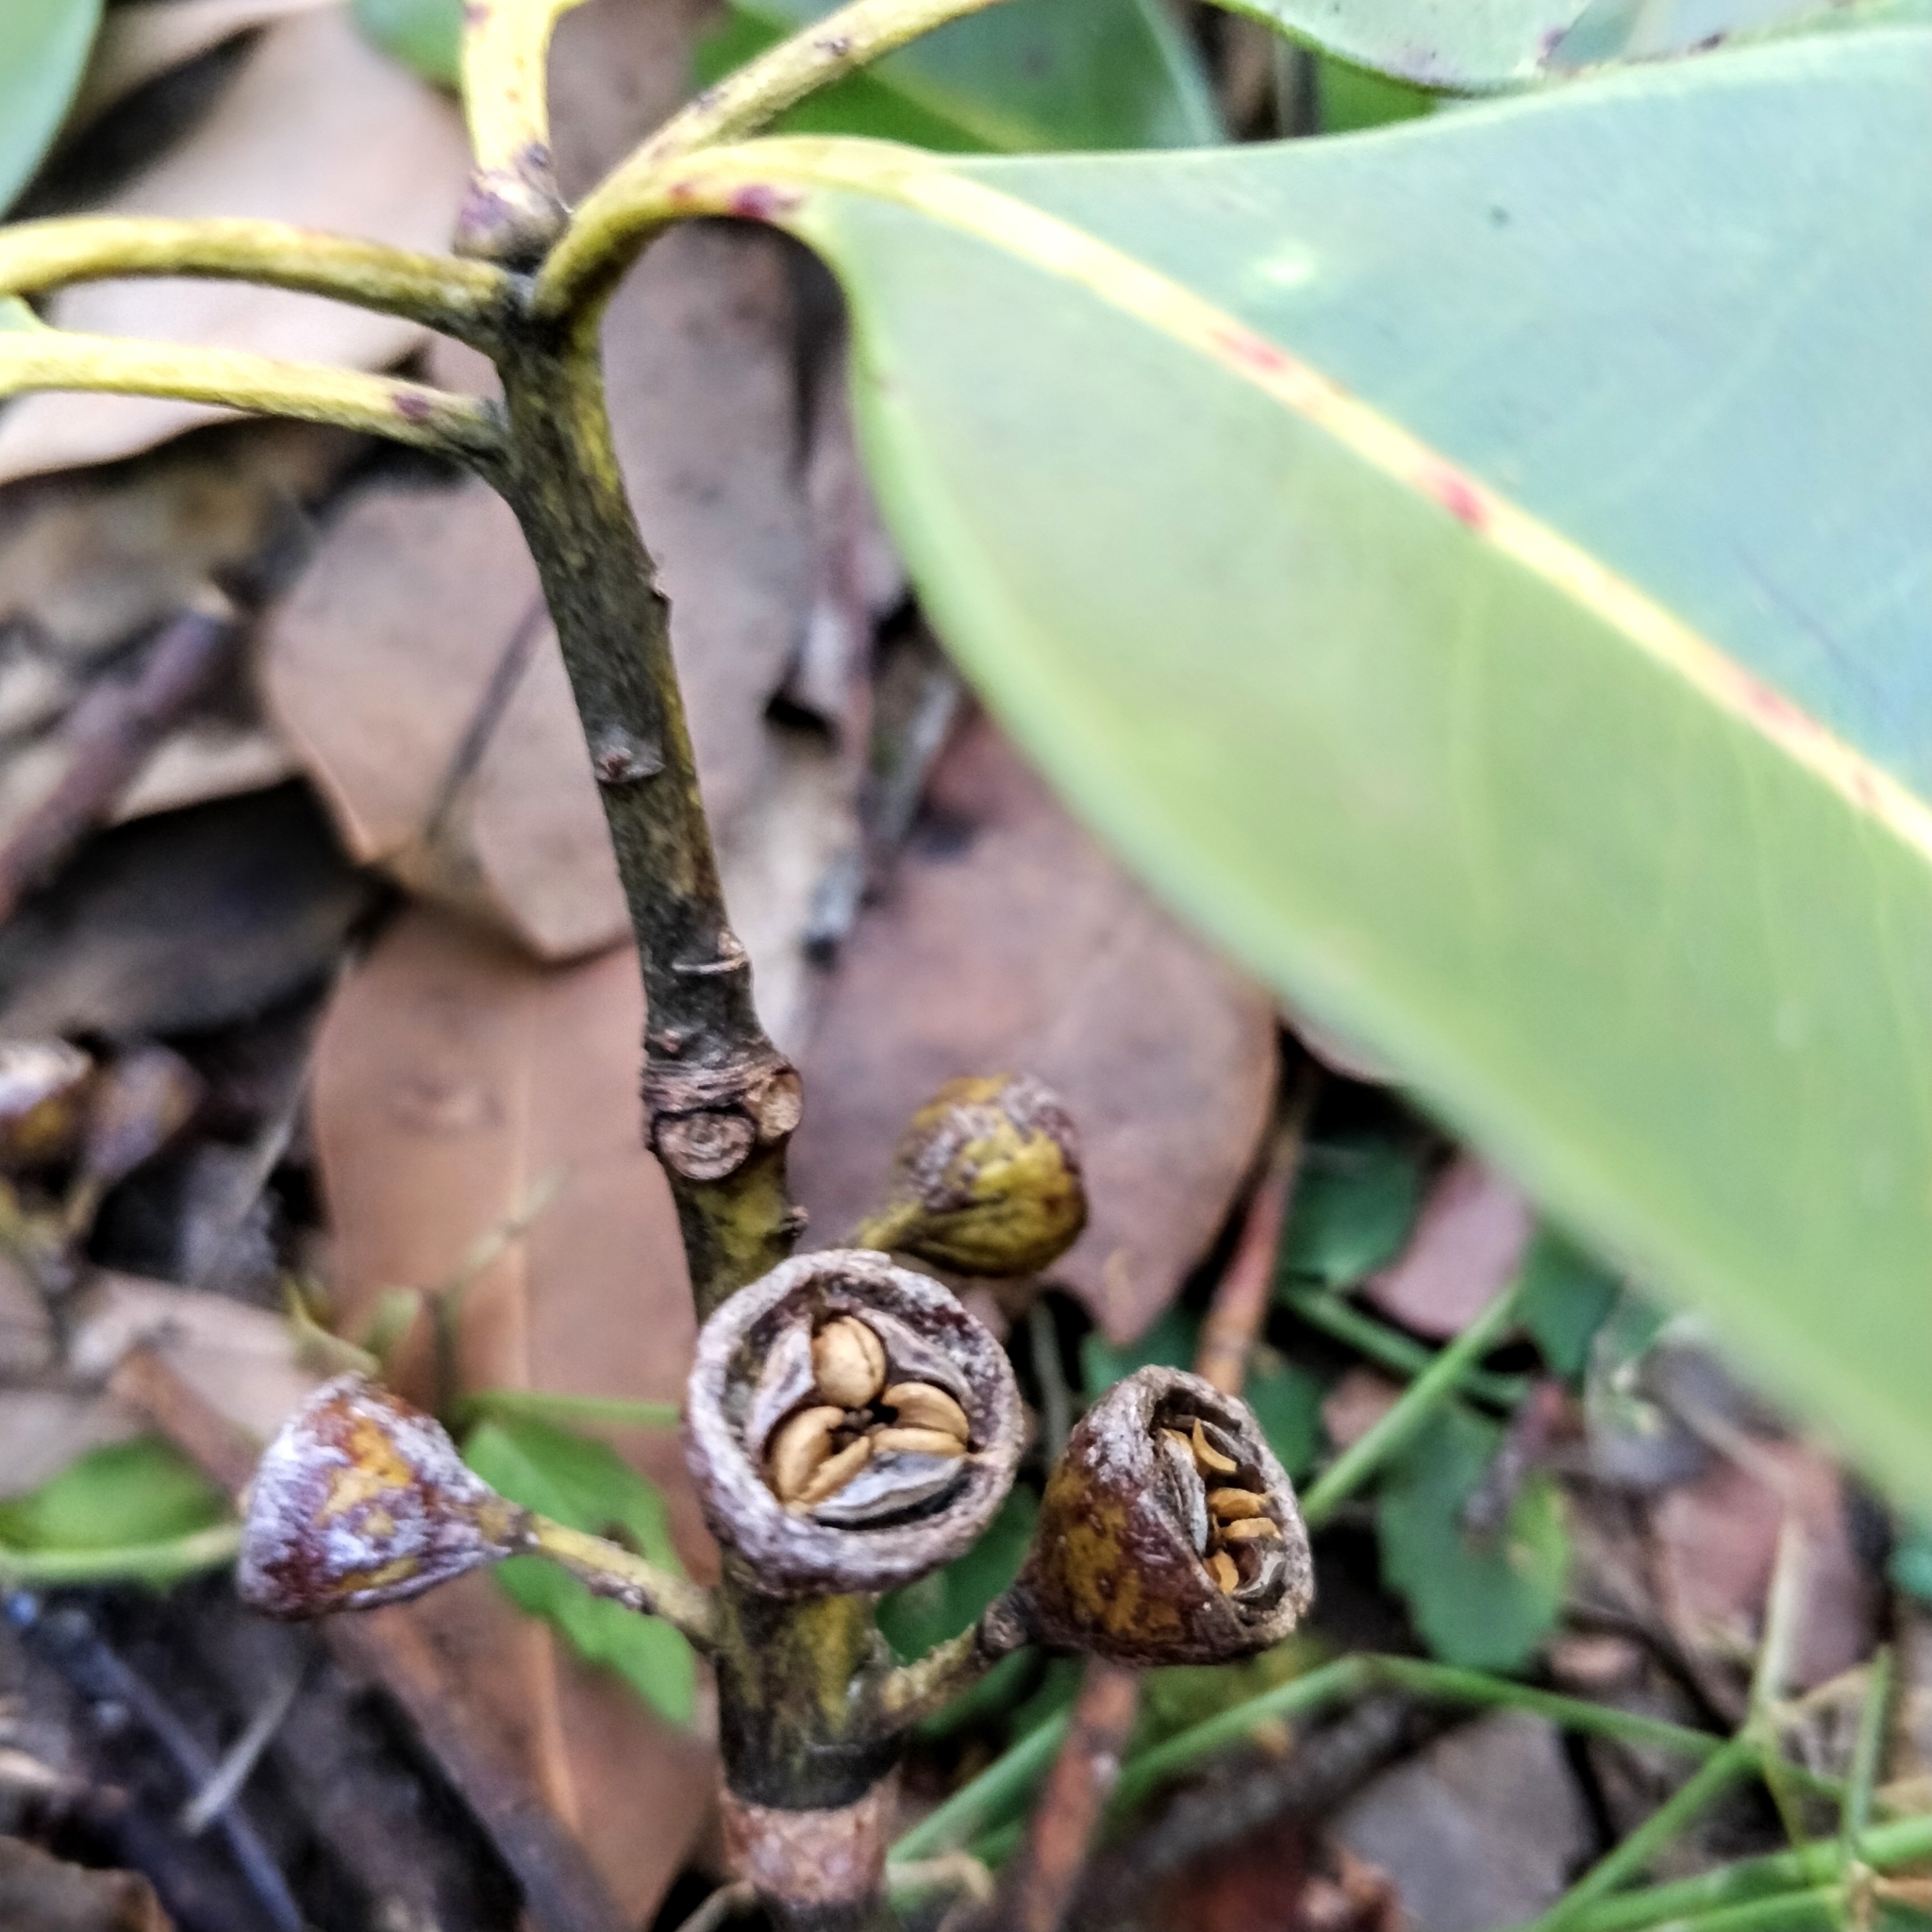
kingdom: Plantae
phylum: Tracheophyta
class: Magnoliopsida
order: Myrtales
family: Myrtaceae
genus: Lophostemon
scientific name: Lophostemon confertus
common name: Brisbane box
